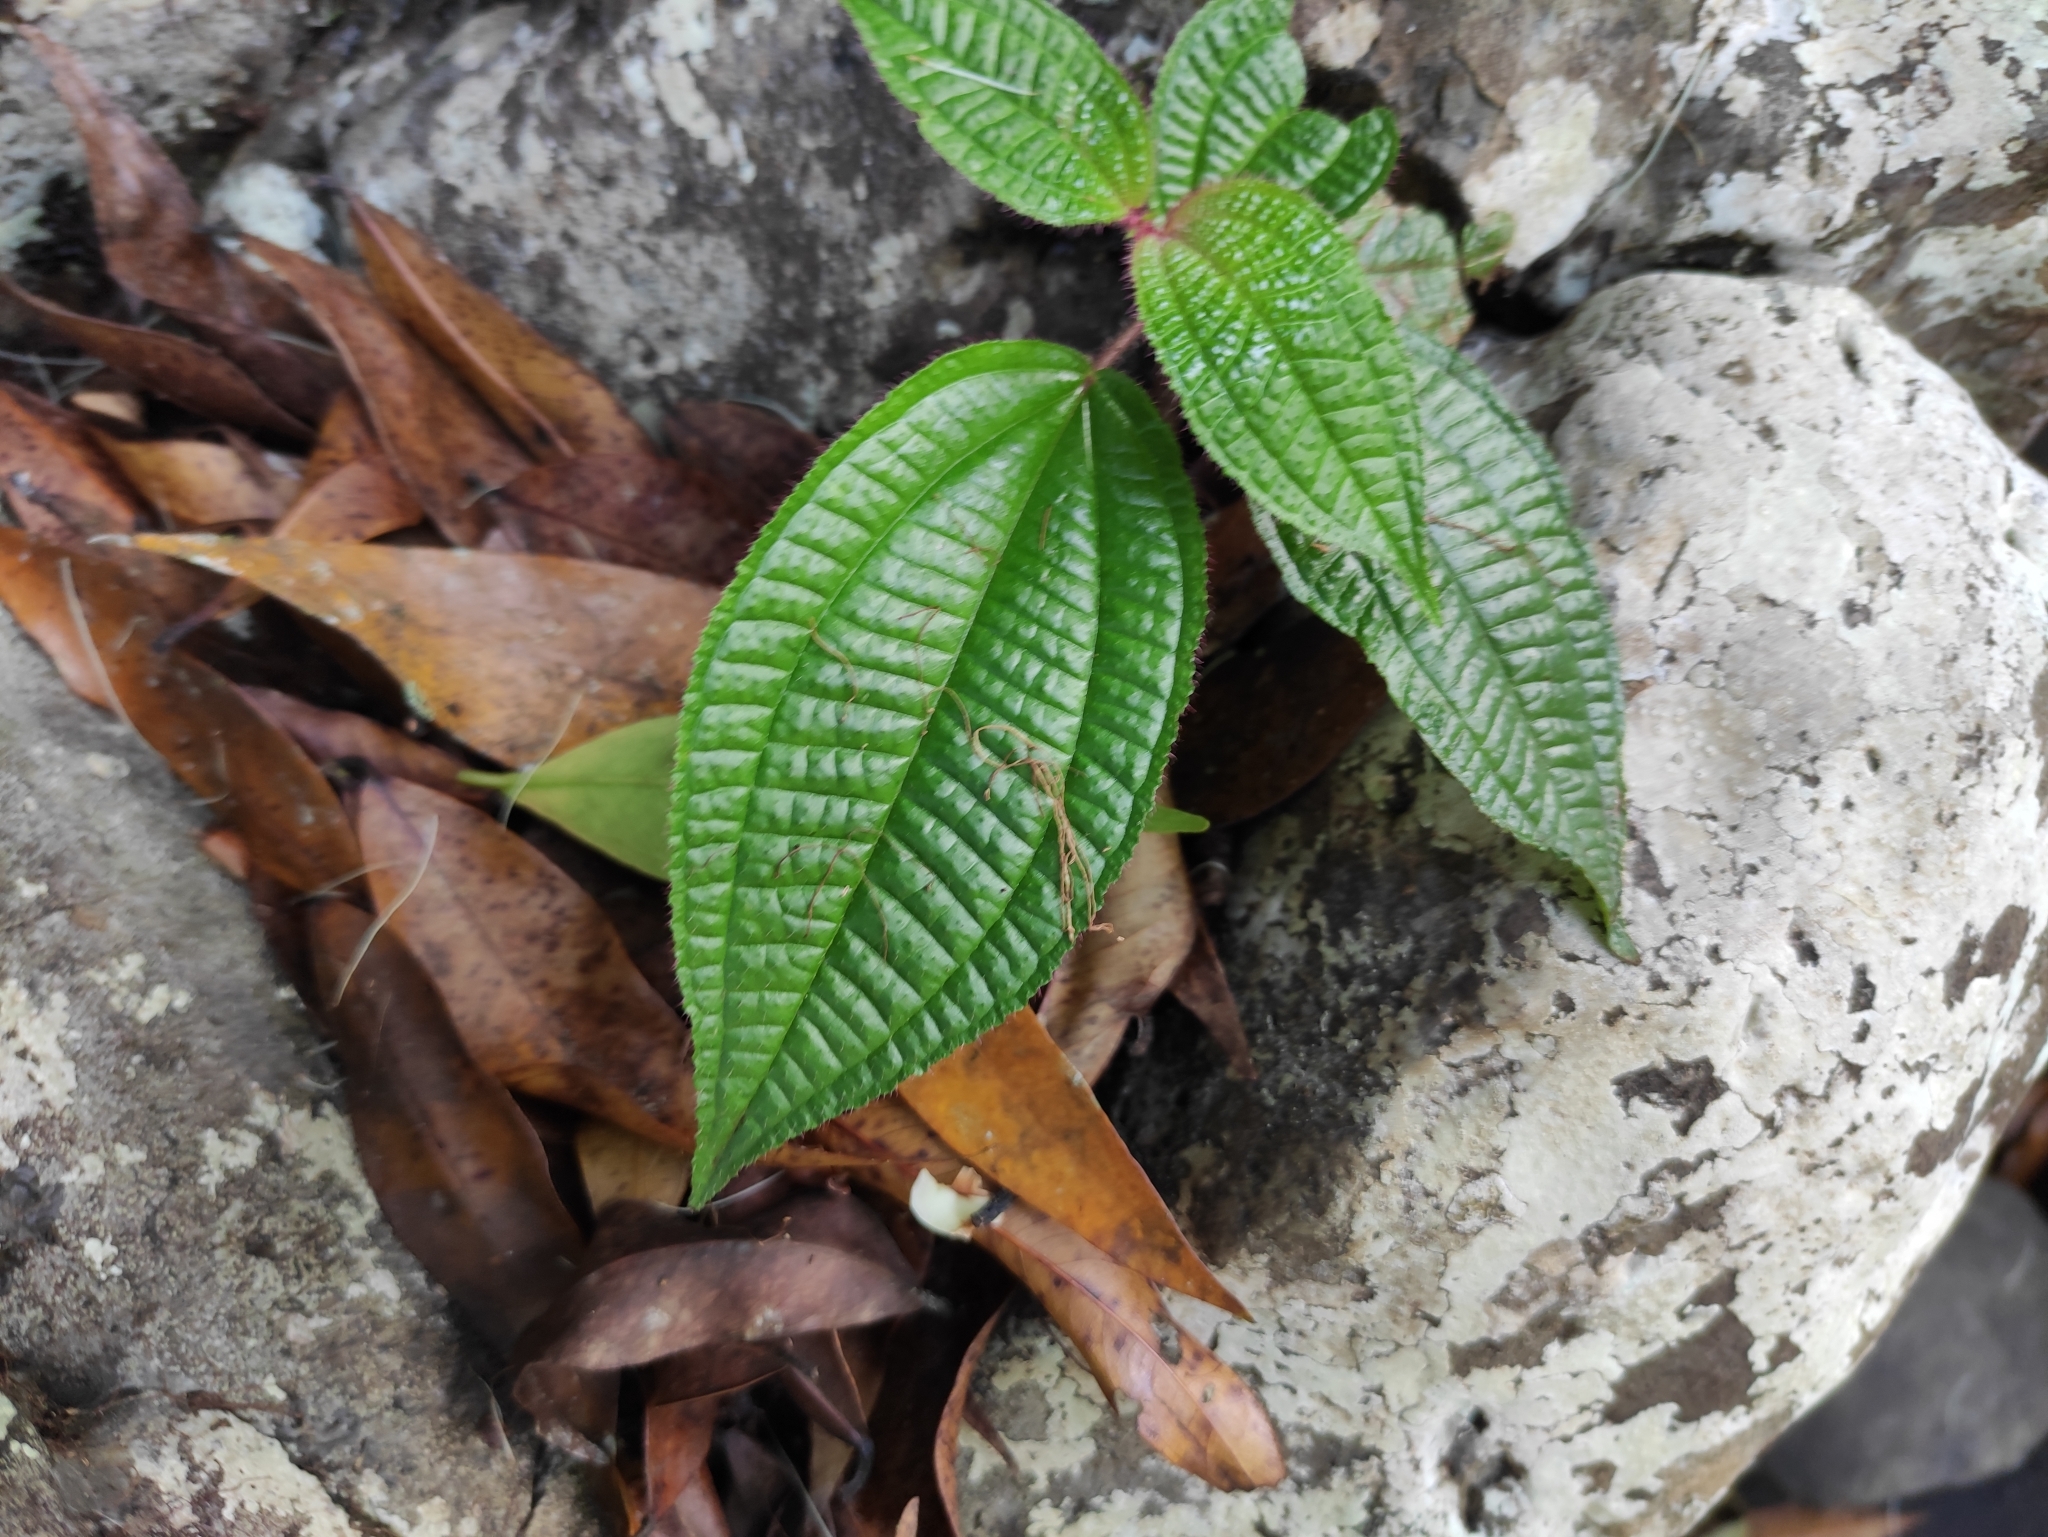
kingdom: Plantae
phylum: Tracheophyta
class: Magnoliopsida
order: Myrtales
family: Melastomataceae
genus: Miconia
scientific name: Miconia crenata
